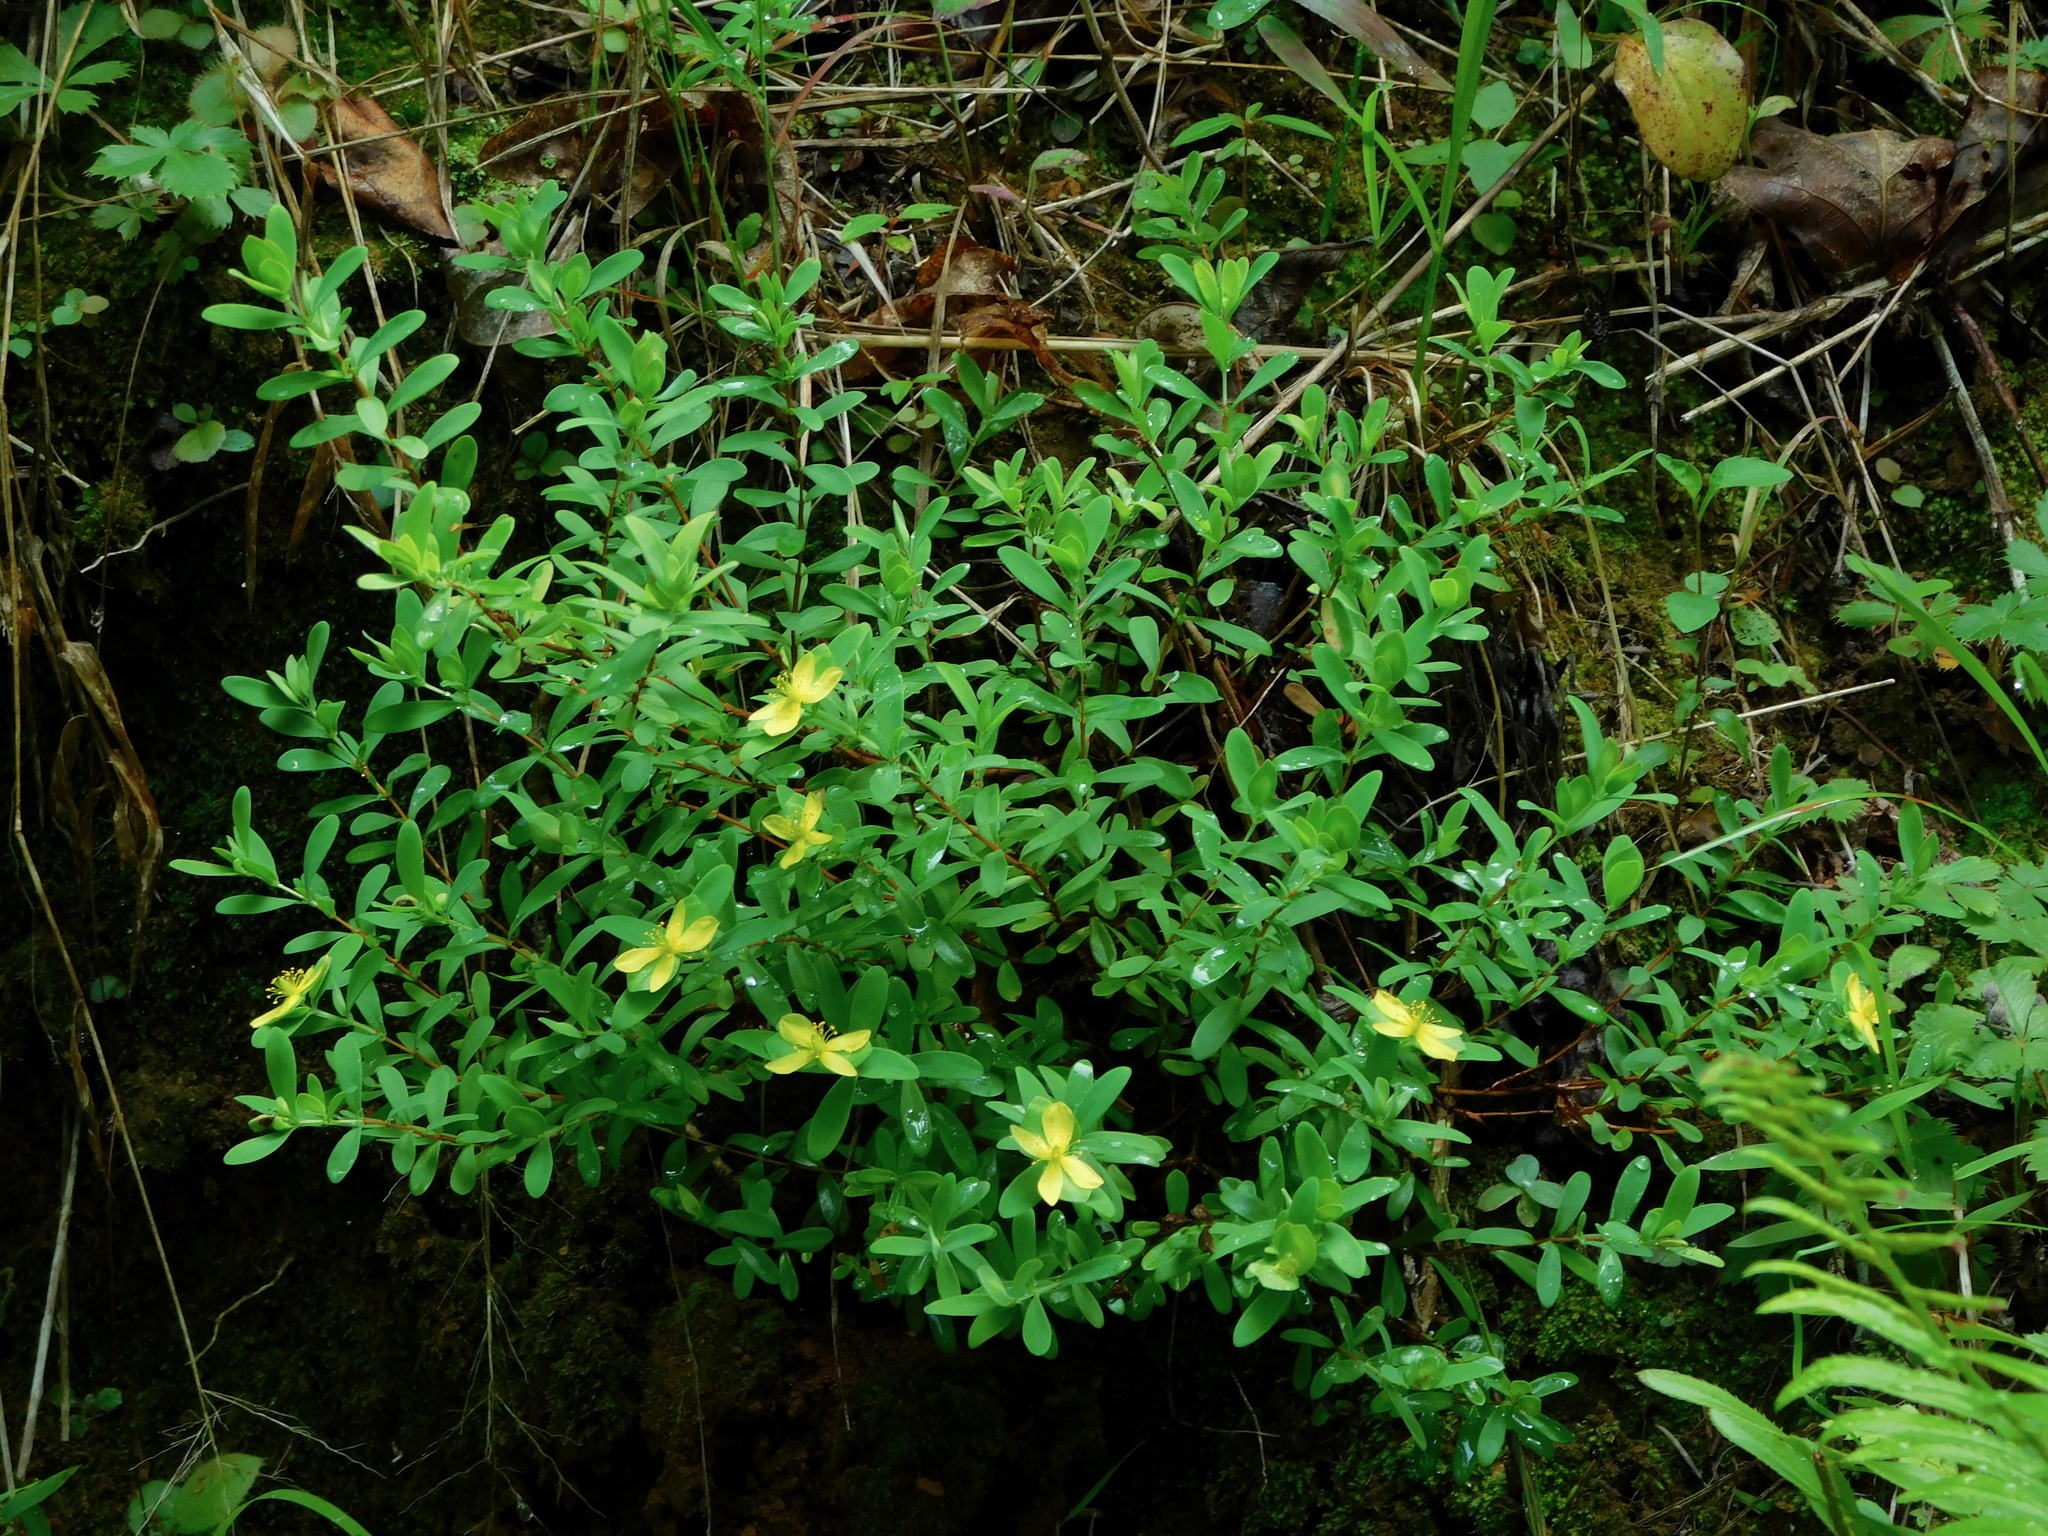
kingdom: Plantae
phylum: Tracheophyta
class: Magnoliopsida
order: Malpighiales
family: Hypericaceae
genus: Hypericum
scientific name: Hypericum hypericoides
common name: St. andrew's cross
